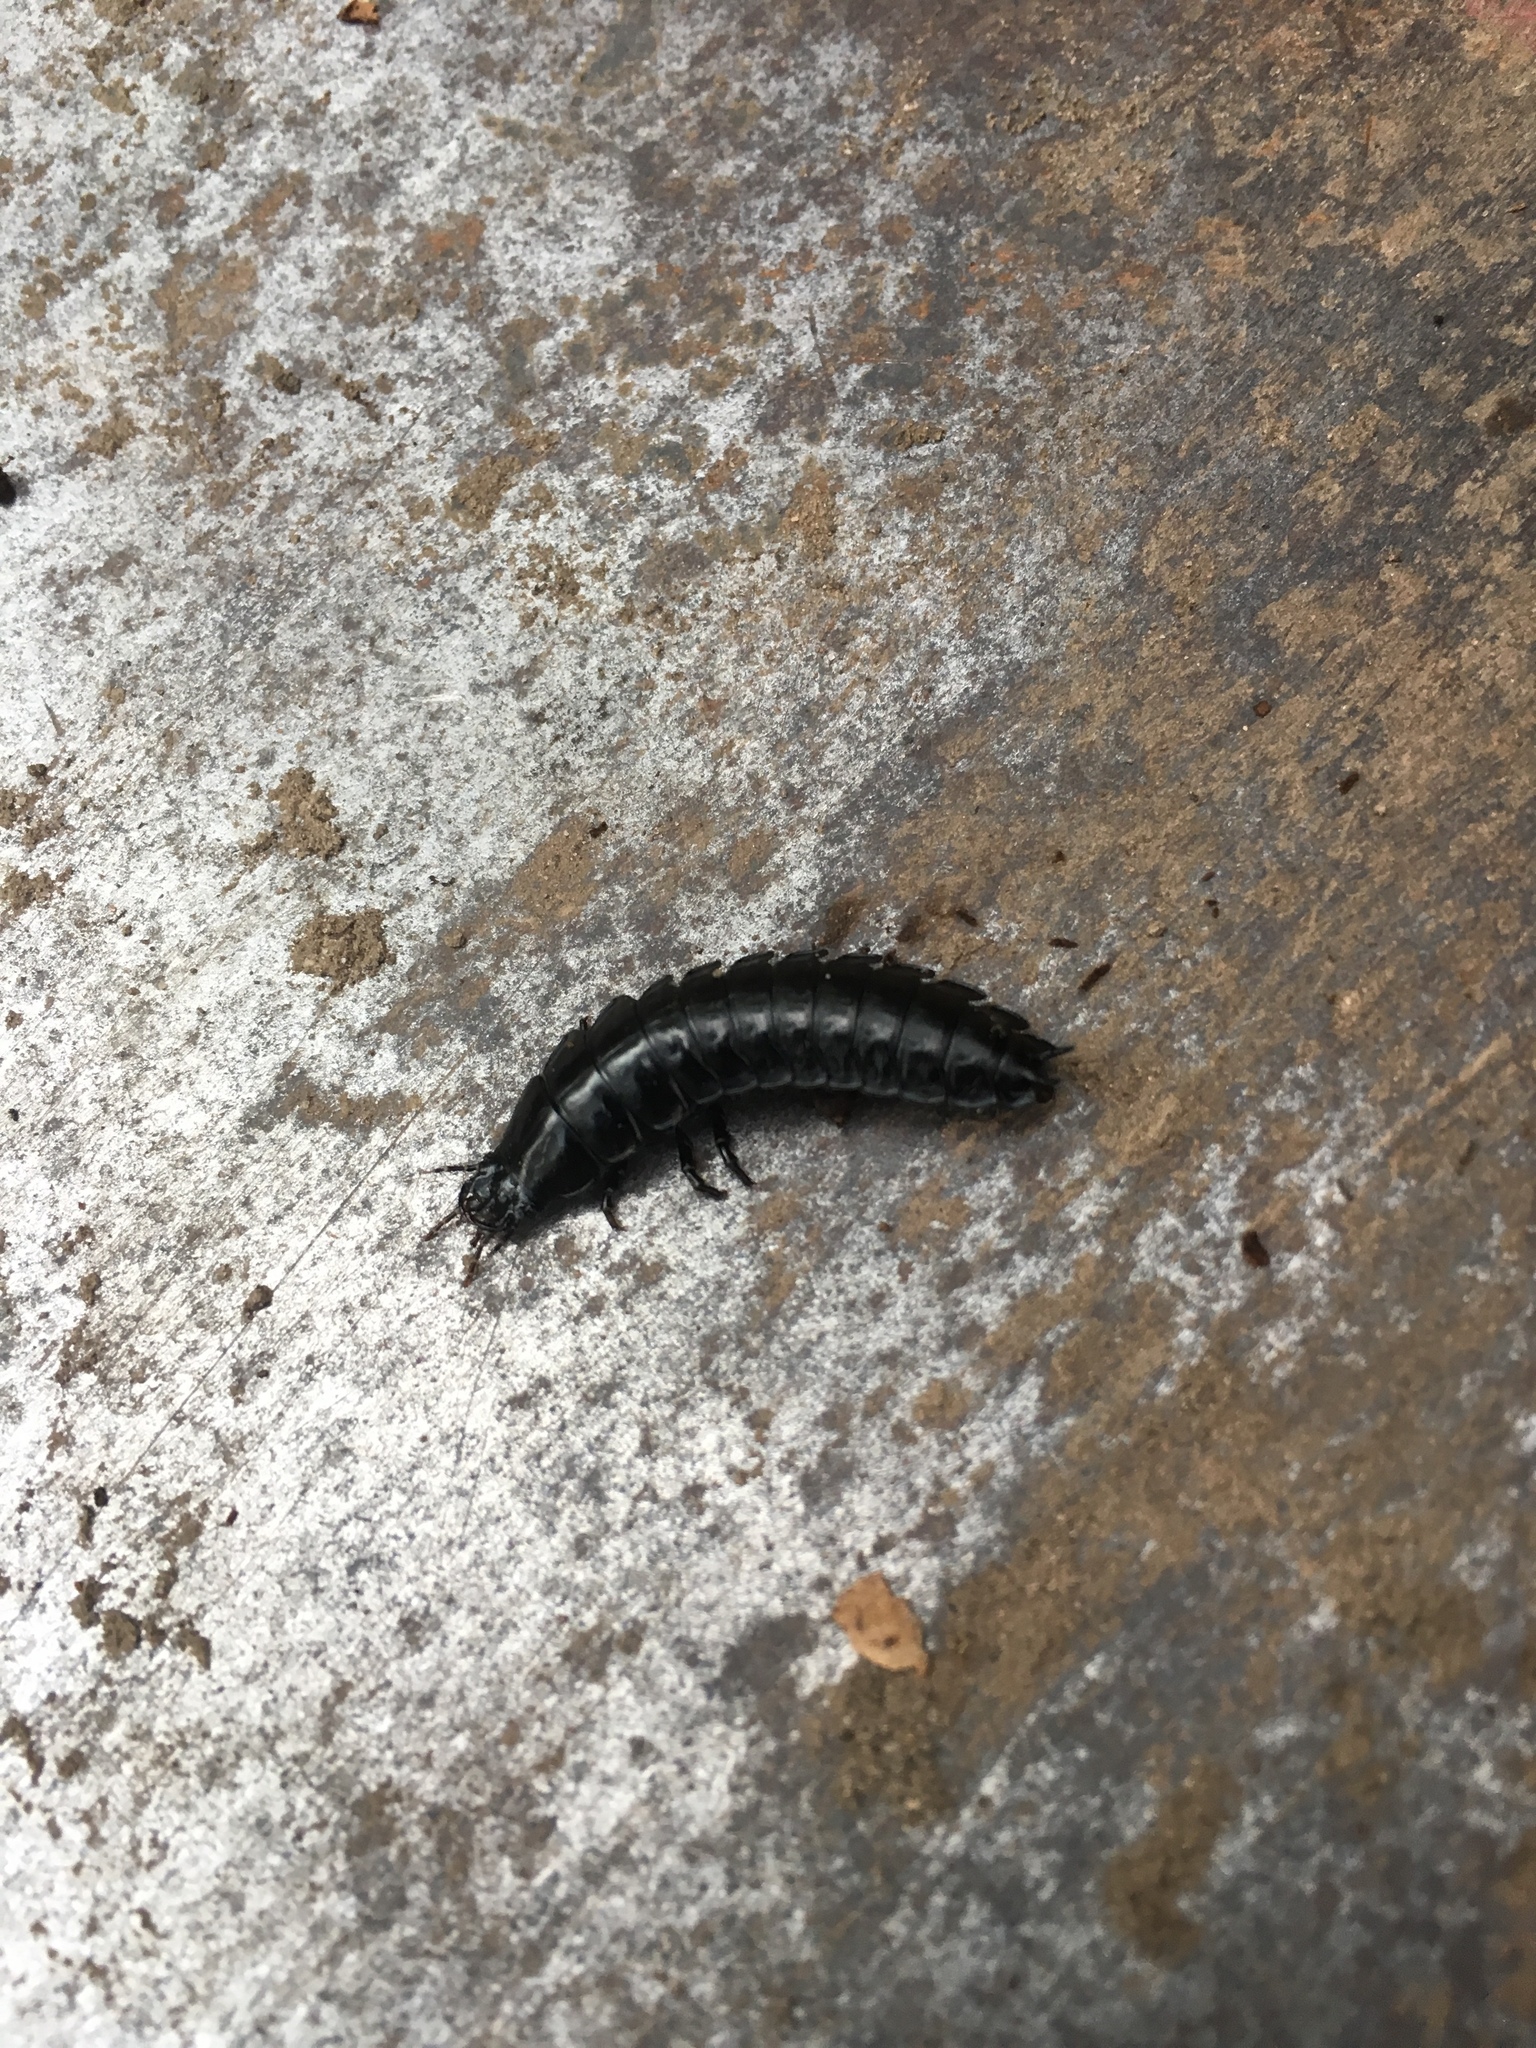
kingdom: Animalia
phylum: Arthropoda
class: Insecta
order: Coleoptera
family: Carabidae
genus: Carabus
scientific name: Carabus
